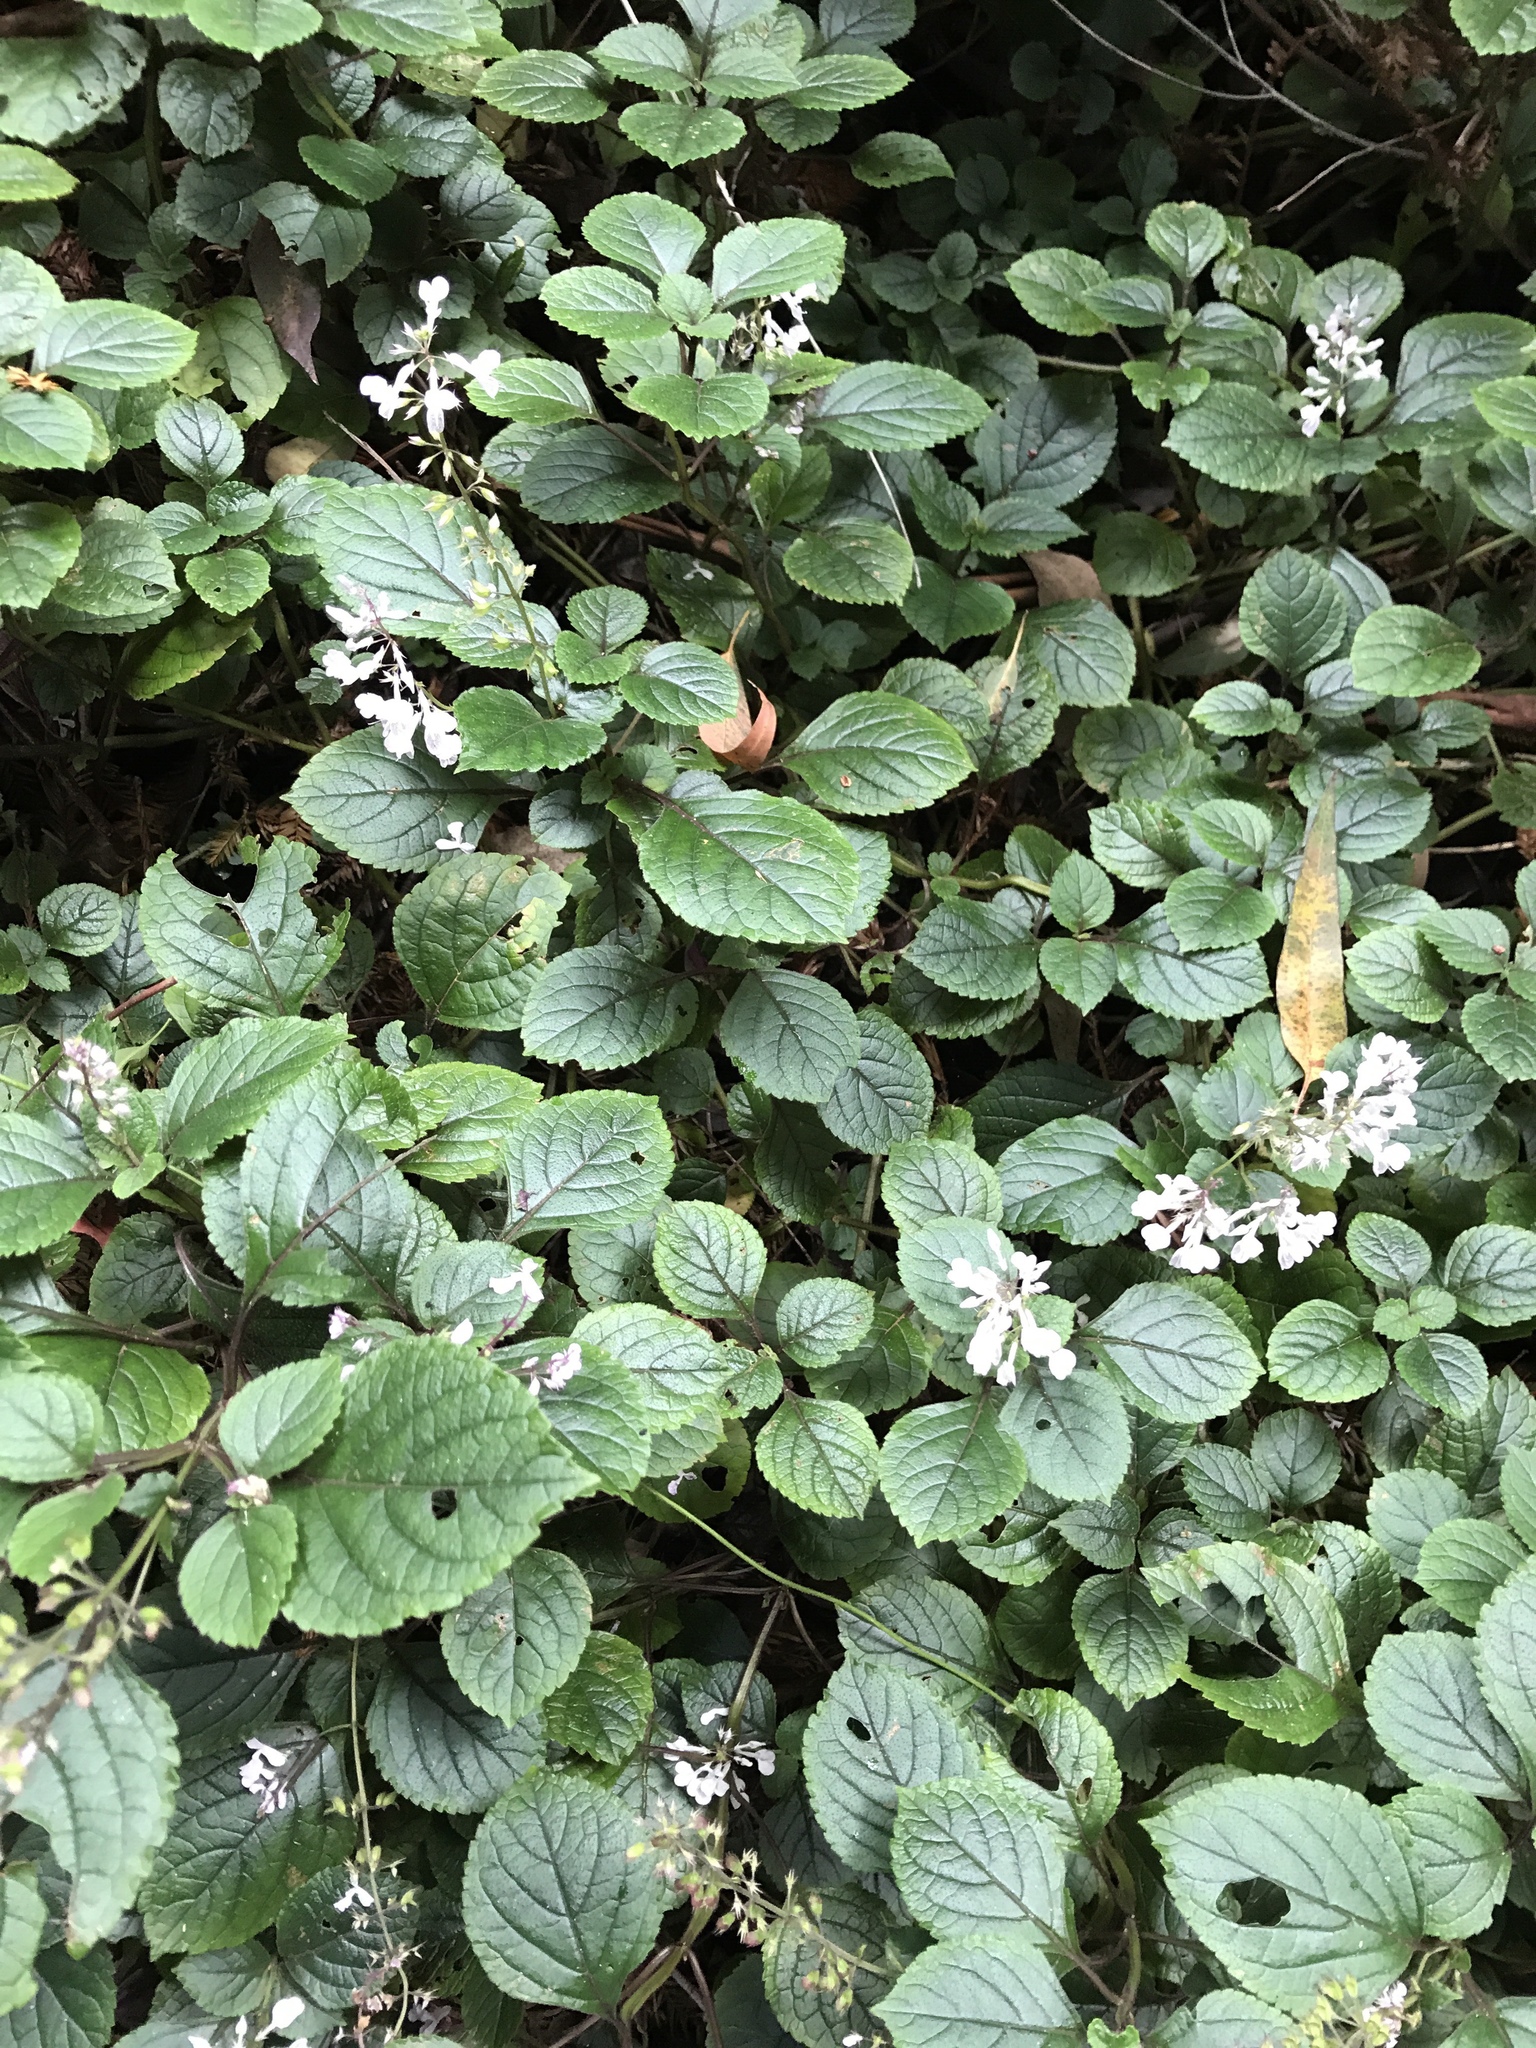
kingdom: Plantae
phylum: Tracheophyta
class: Magnoliopsida
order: Lamiales
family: Lamiaceae
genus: Plectranthus
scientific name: Plectranthus ciliatus
